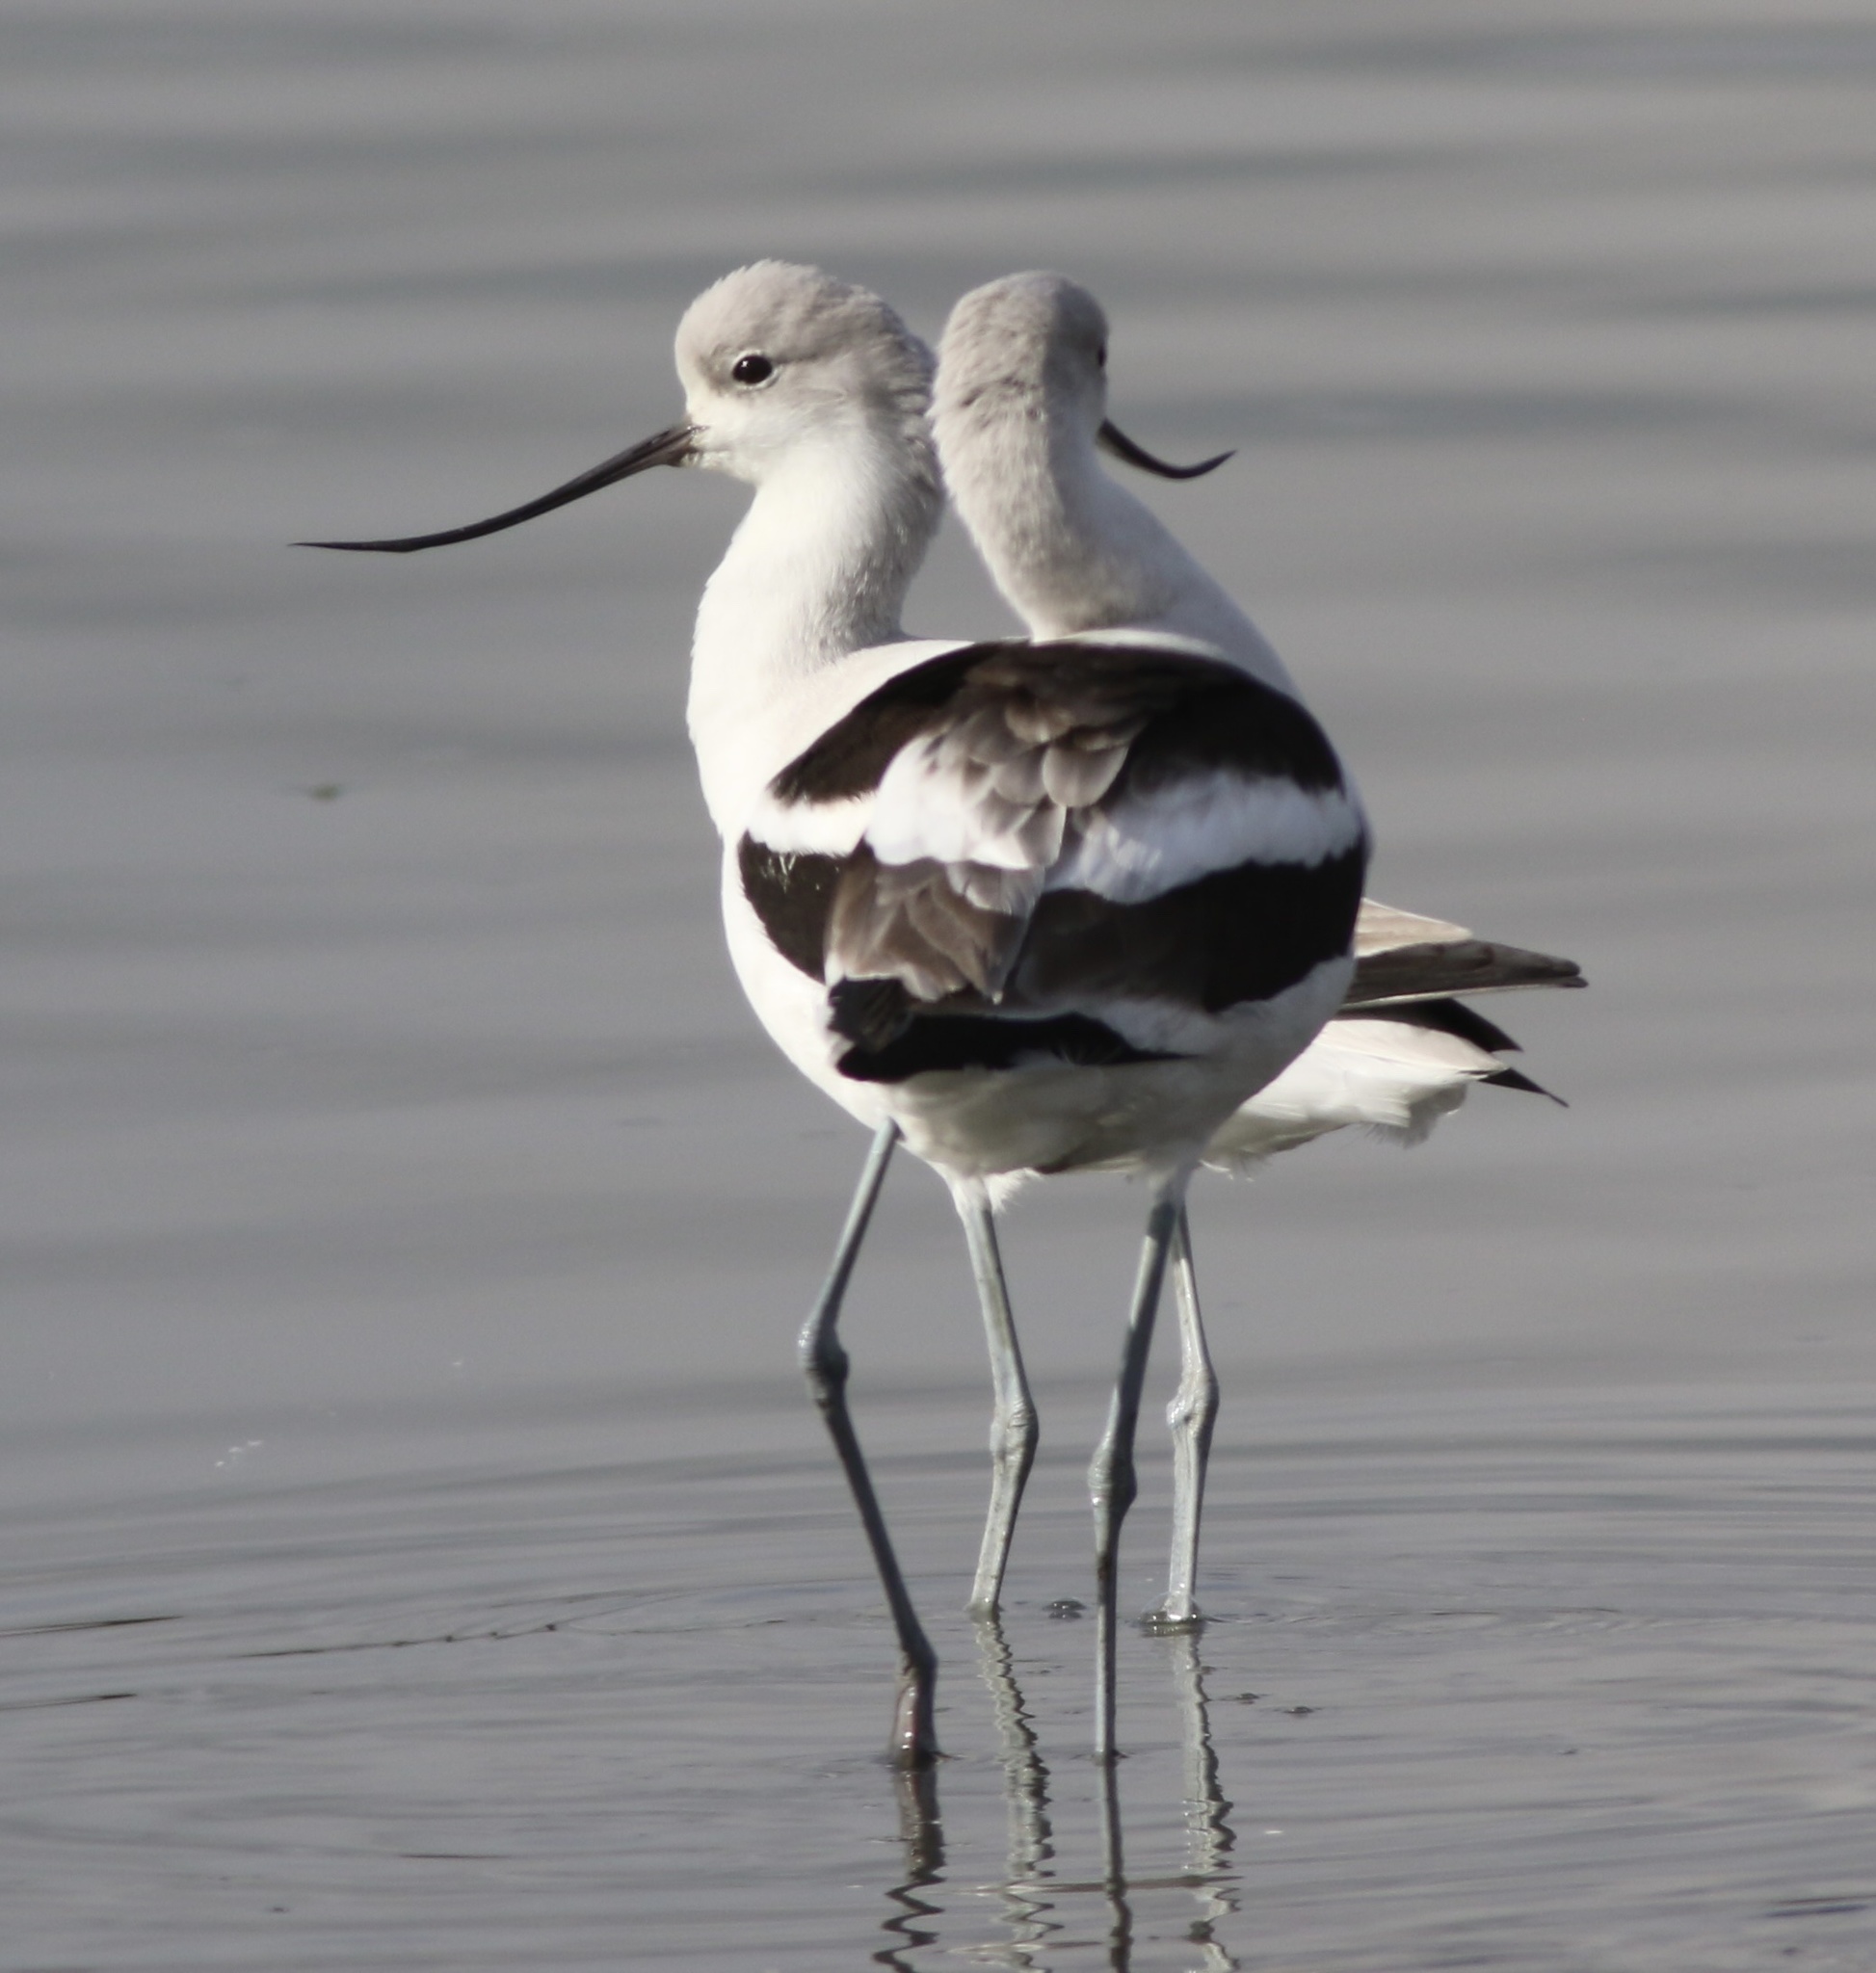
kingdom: Animalia
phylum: Chordata
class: Aves
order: Charadriiformes
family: Recurvirostridae
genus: Recurvirostra
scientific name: Recurvirostra americana
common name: American avocet
